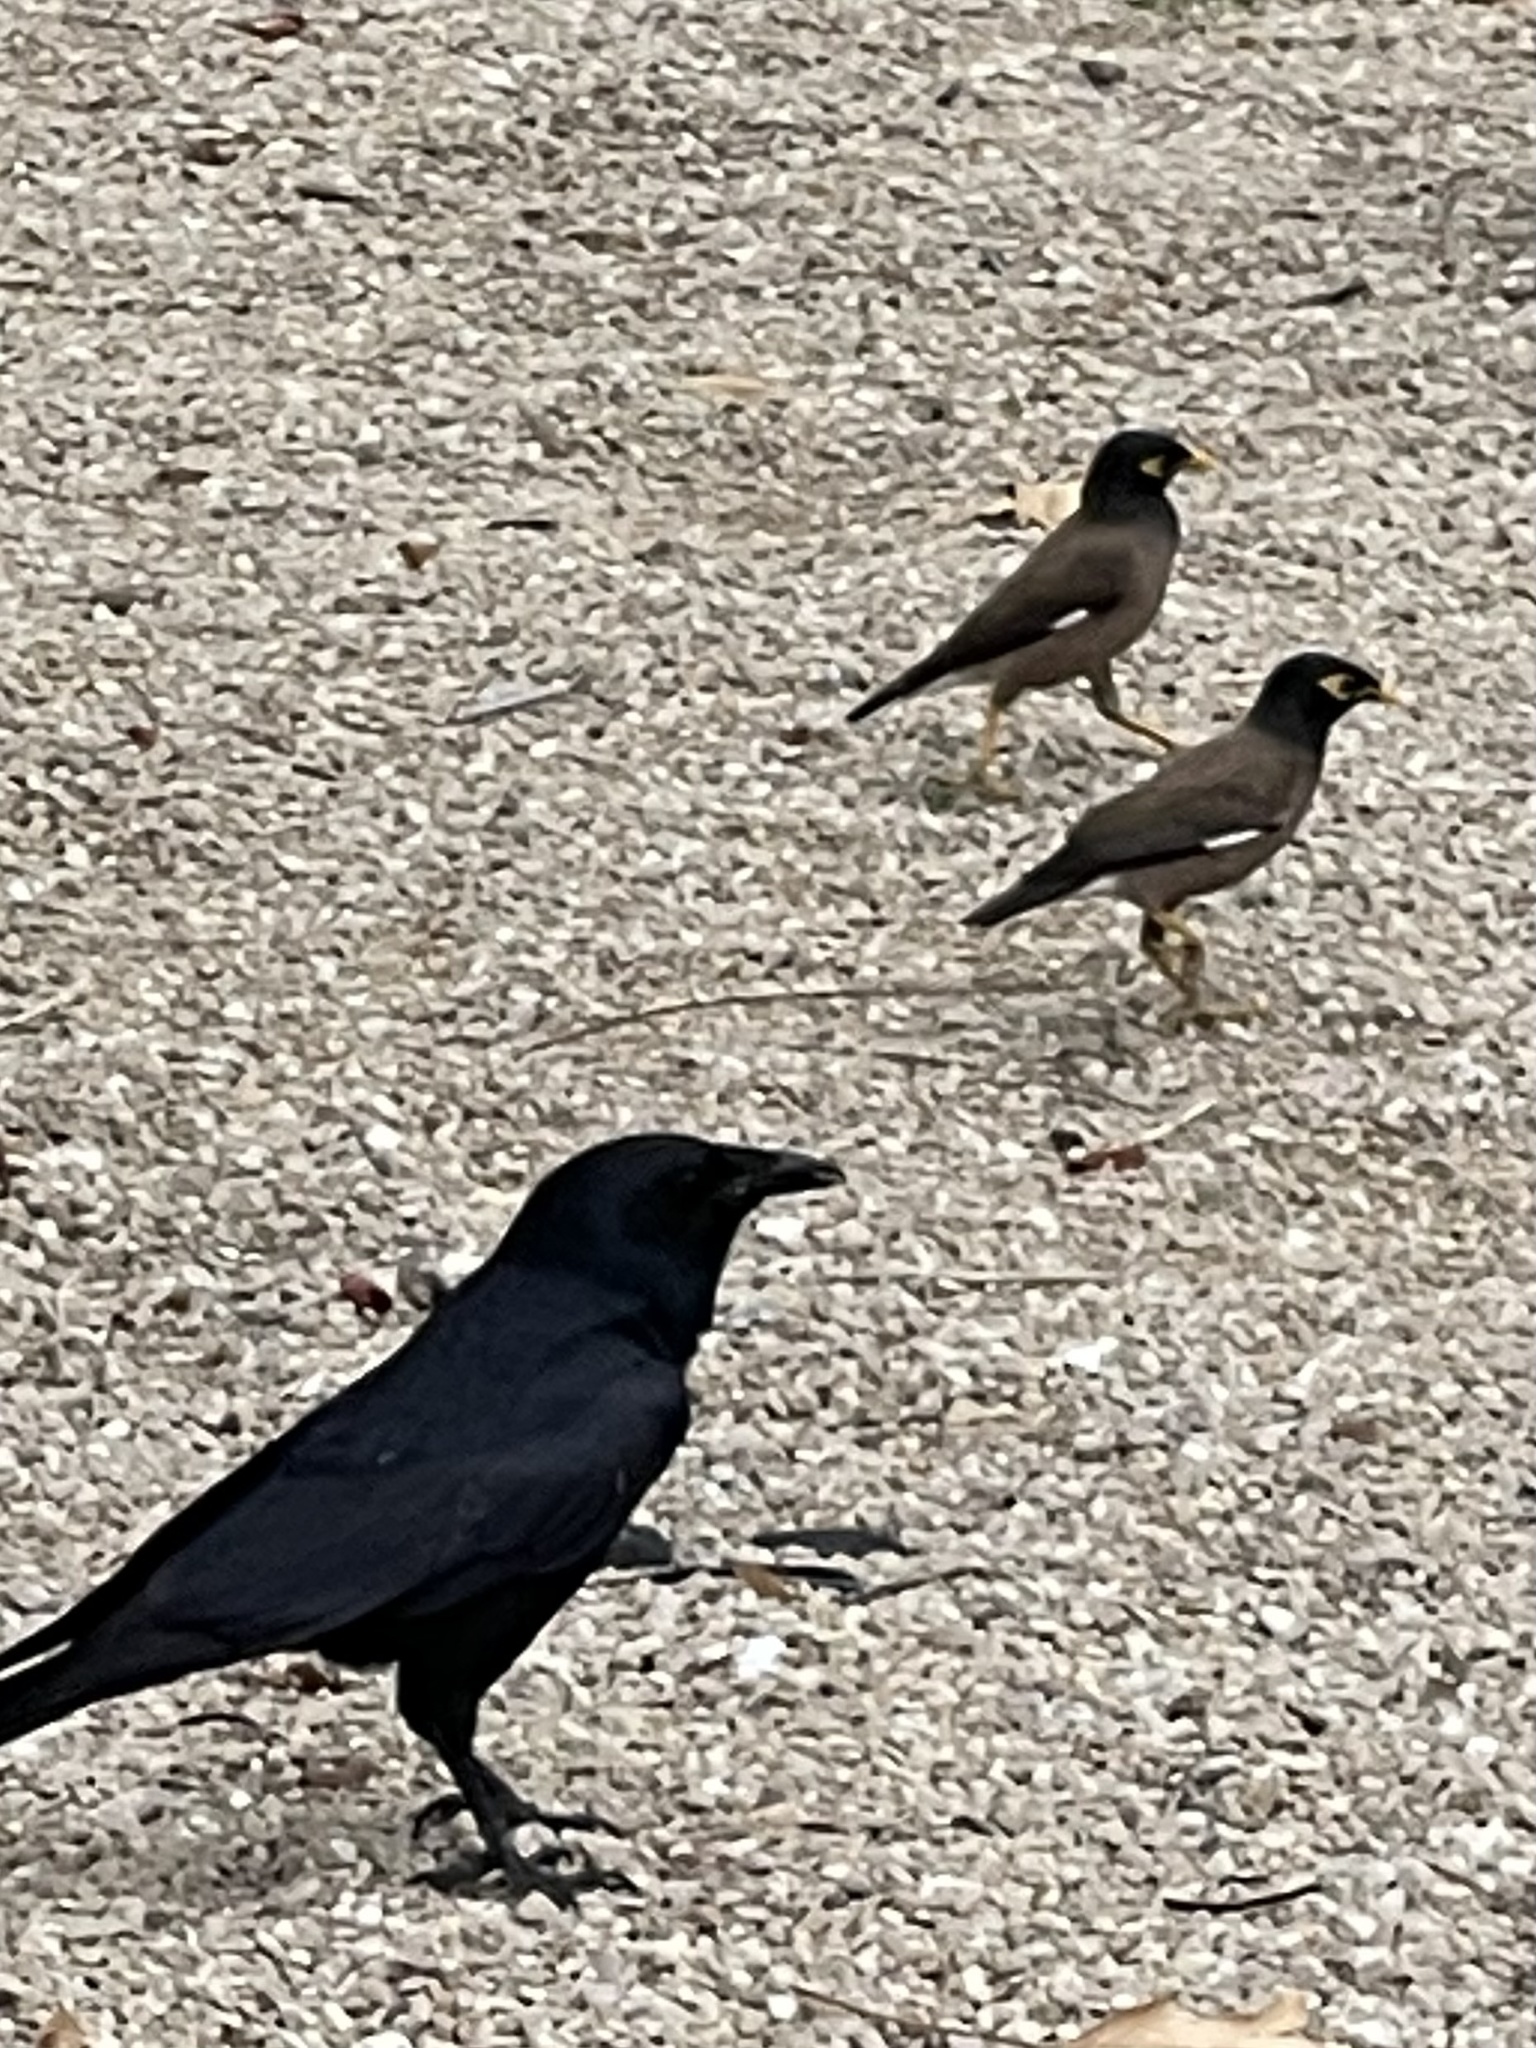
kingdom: Animalia
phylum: Chordata
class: Aves
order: Passeriformes
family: Sturnidae
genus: Acridotheres
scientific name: Acridotheres tristis
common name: Common myna
